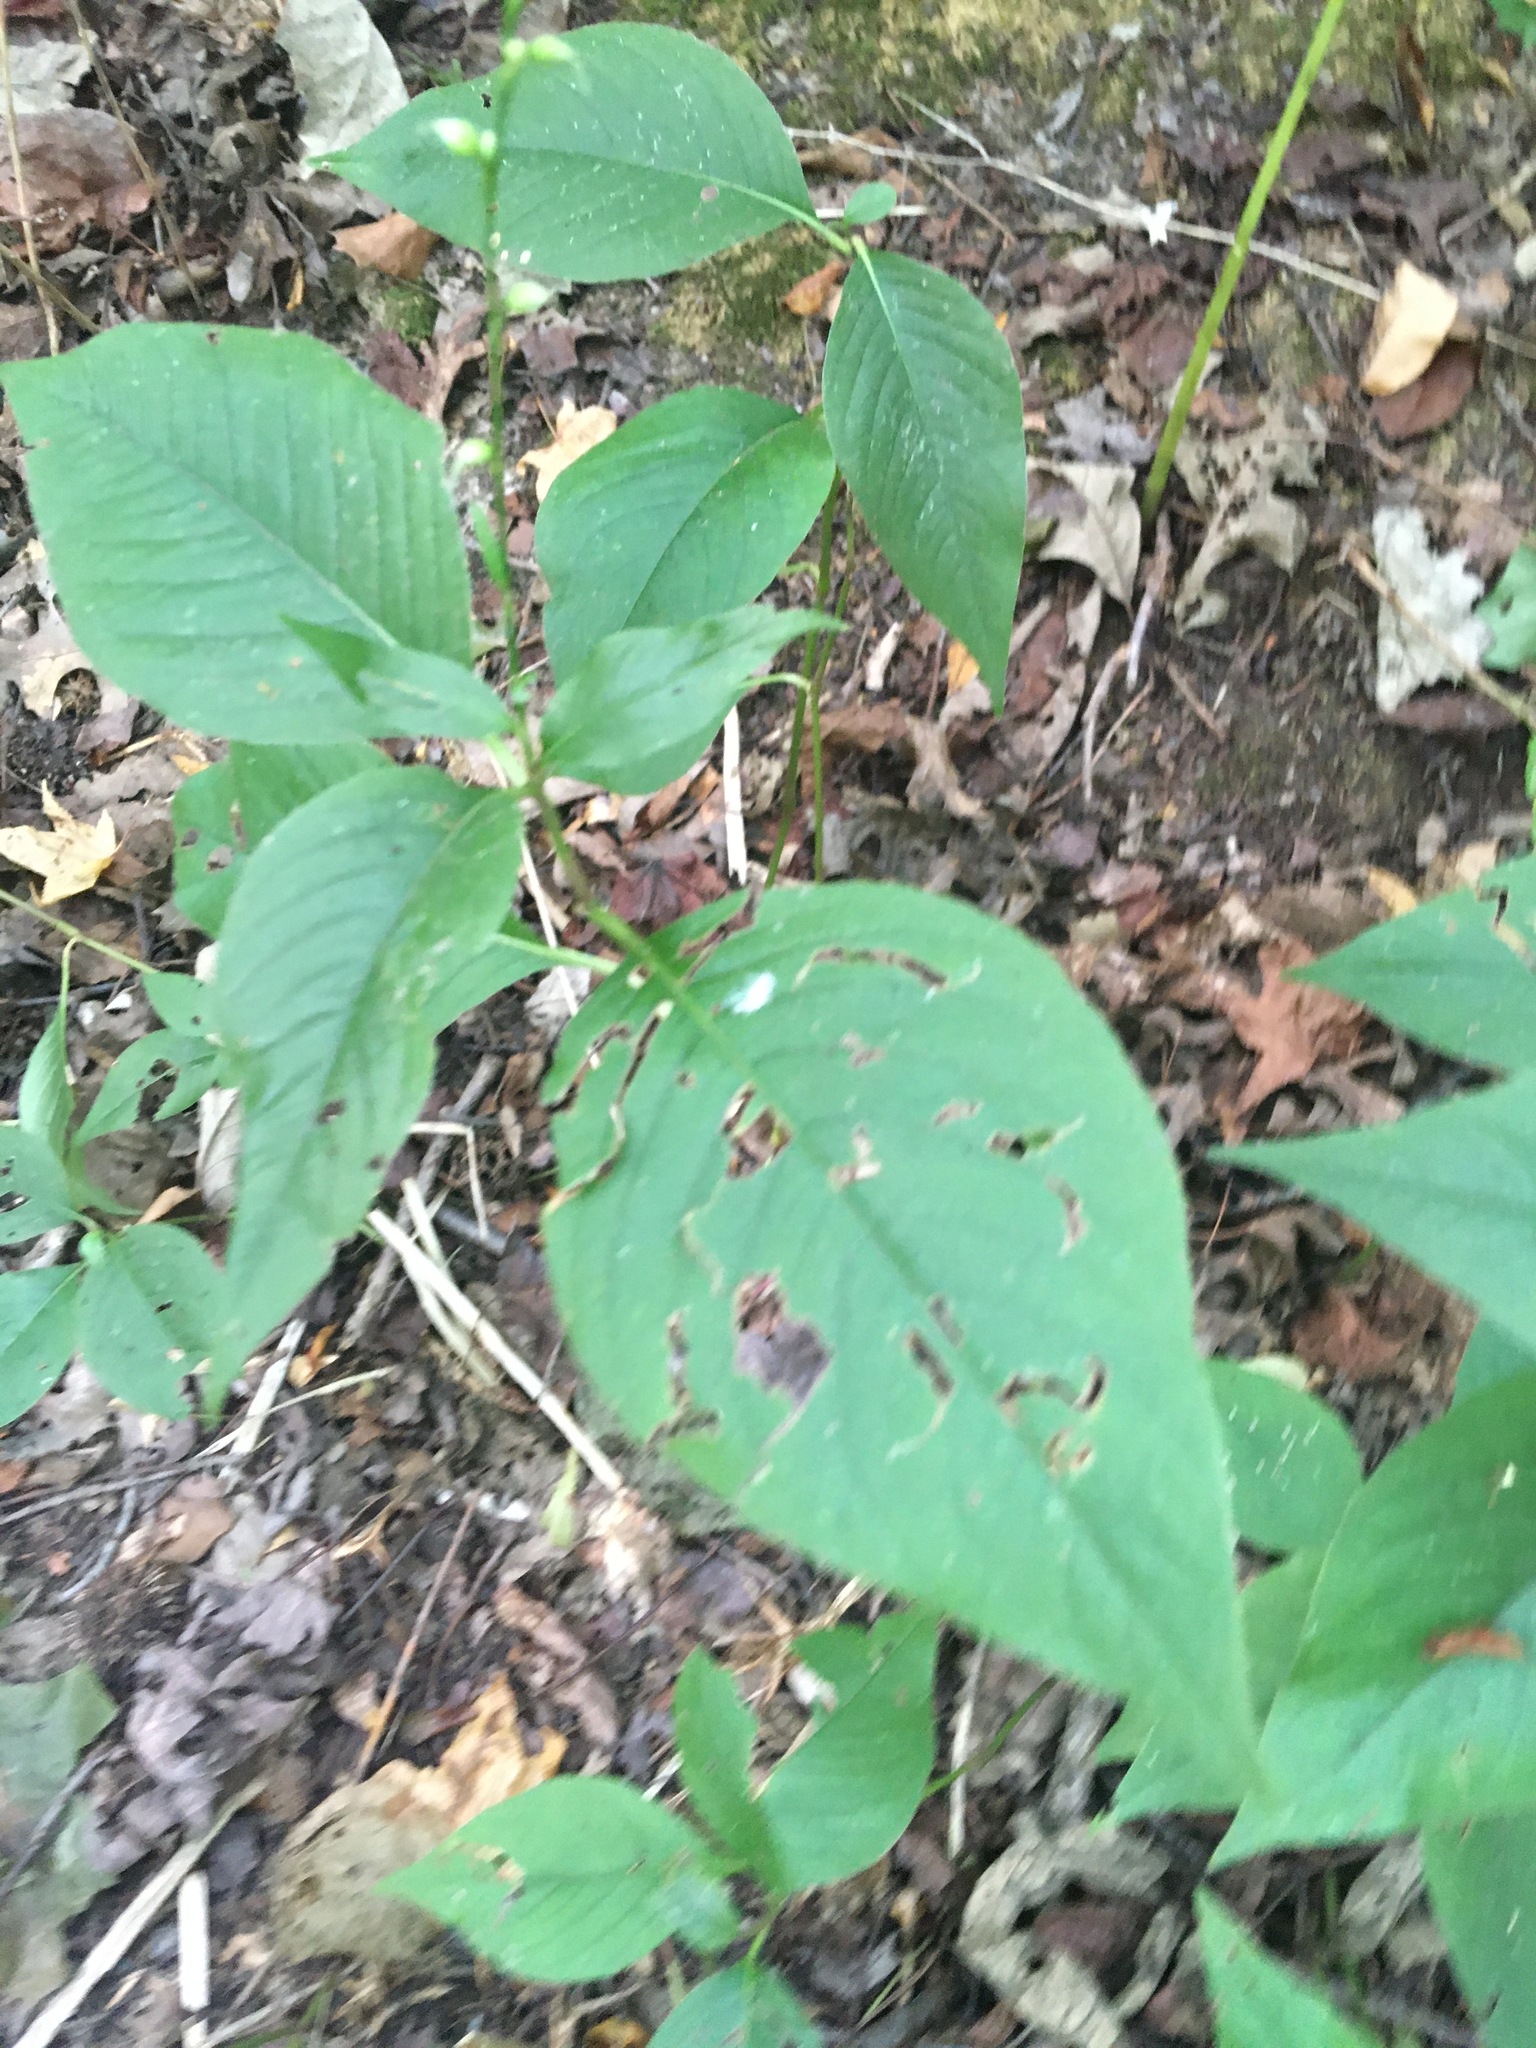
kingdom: Plantae
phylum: Tracheophyta
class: Magnoliopsida
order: Caryophyllales
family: Polygonaceae
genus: Persicaria
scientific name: Persicaria virginiana
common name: Jumpseed
